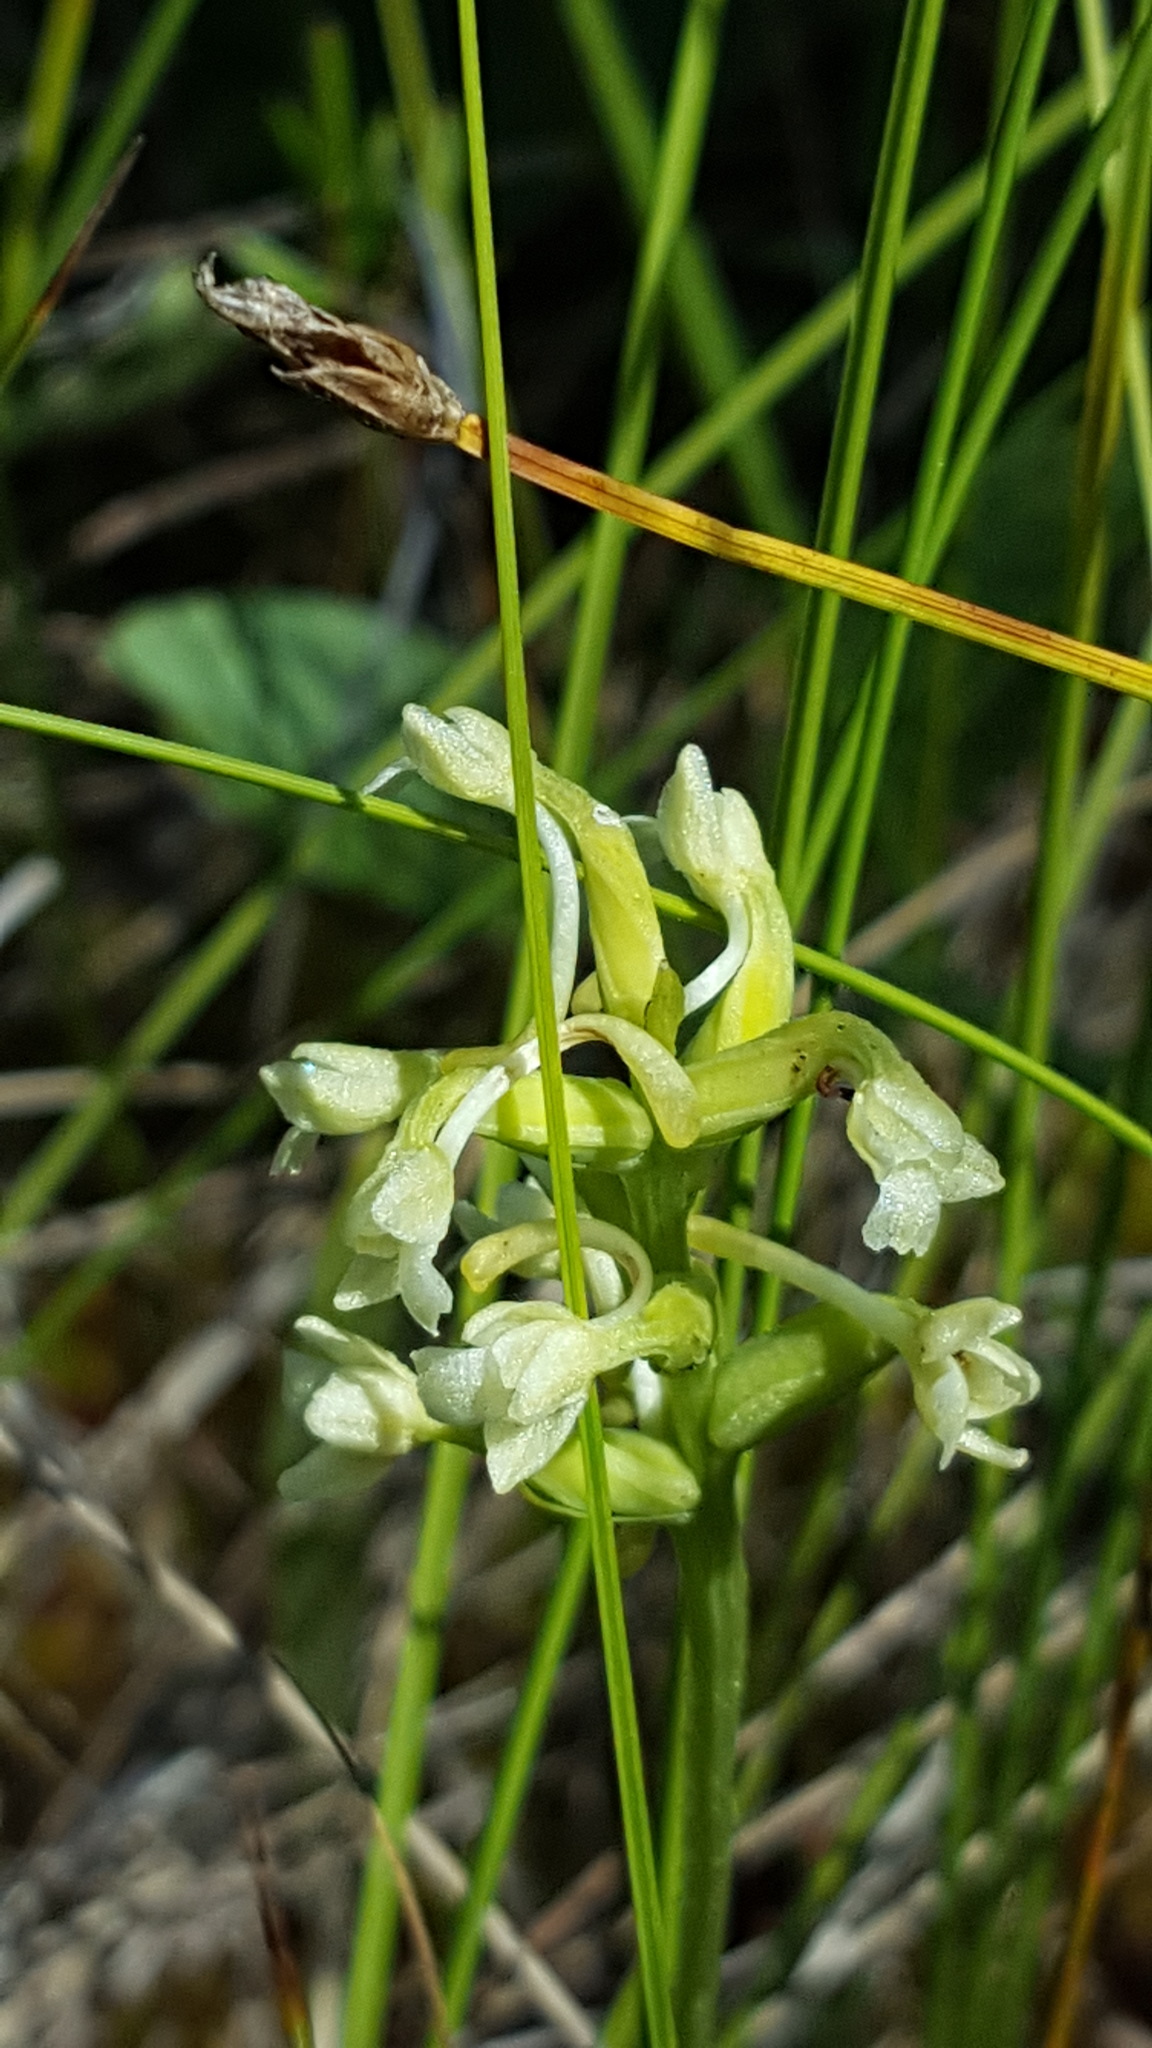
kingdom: Plantae
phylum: Tracheophyta
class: Liliopsida
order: Asparagales
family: Orchidaceae
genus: Platanthera
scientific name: Platanthera clavellata
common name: Club-spur orchid
